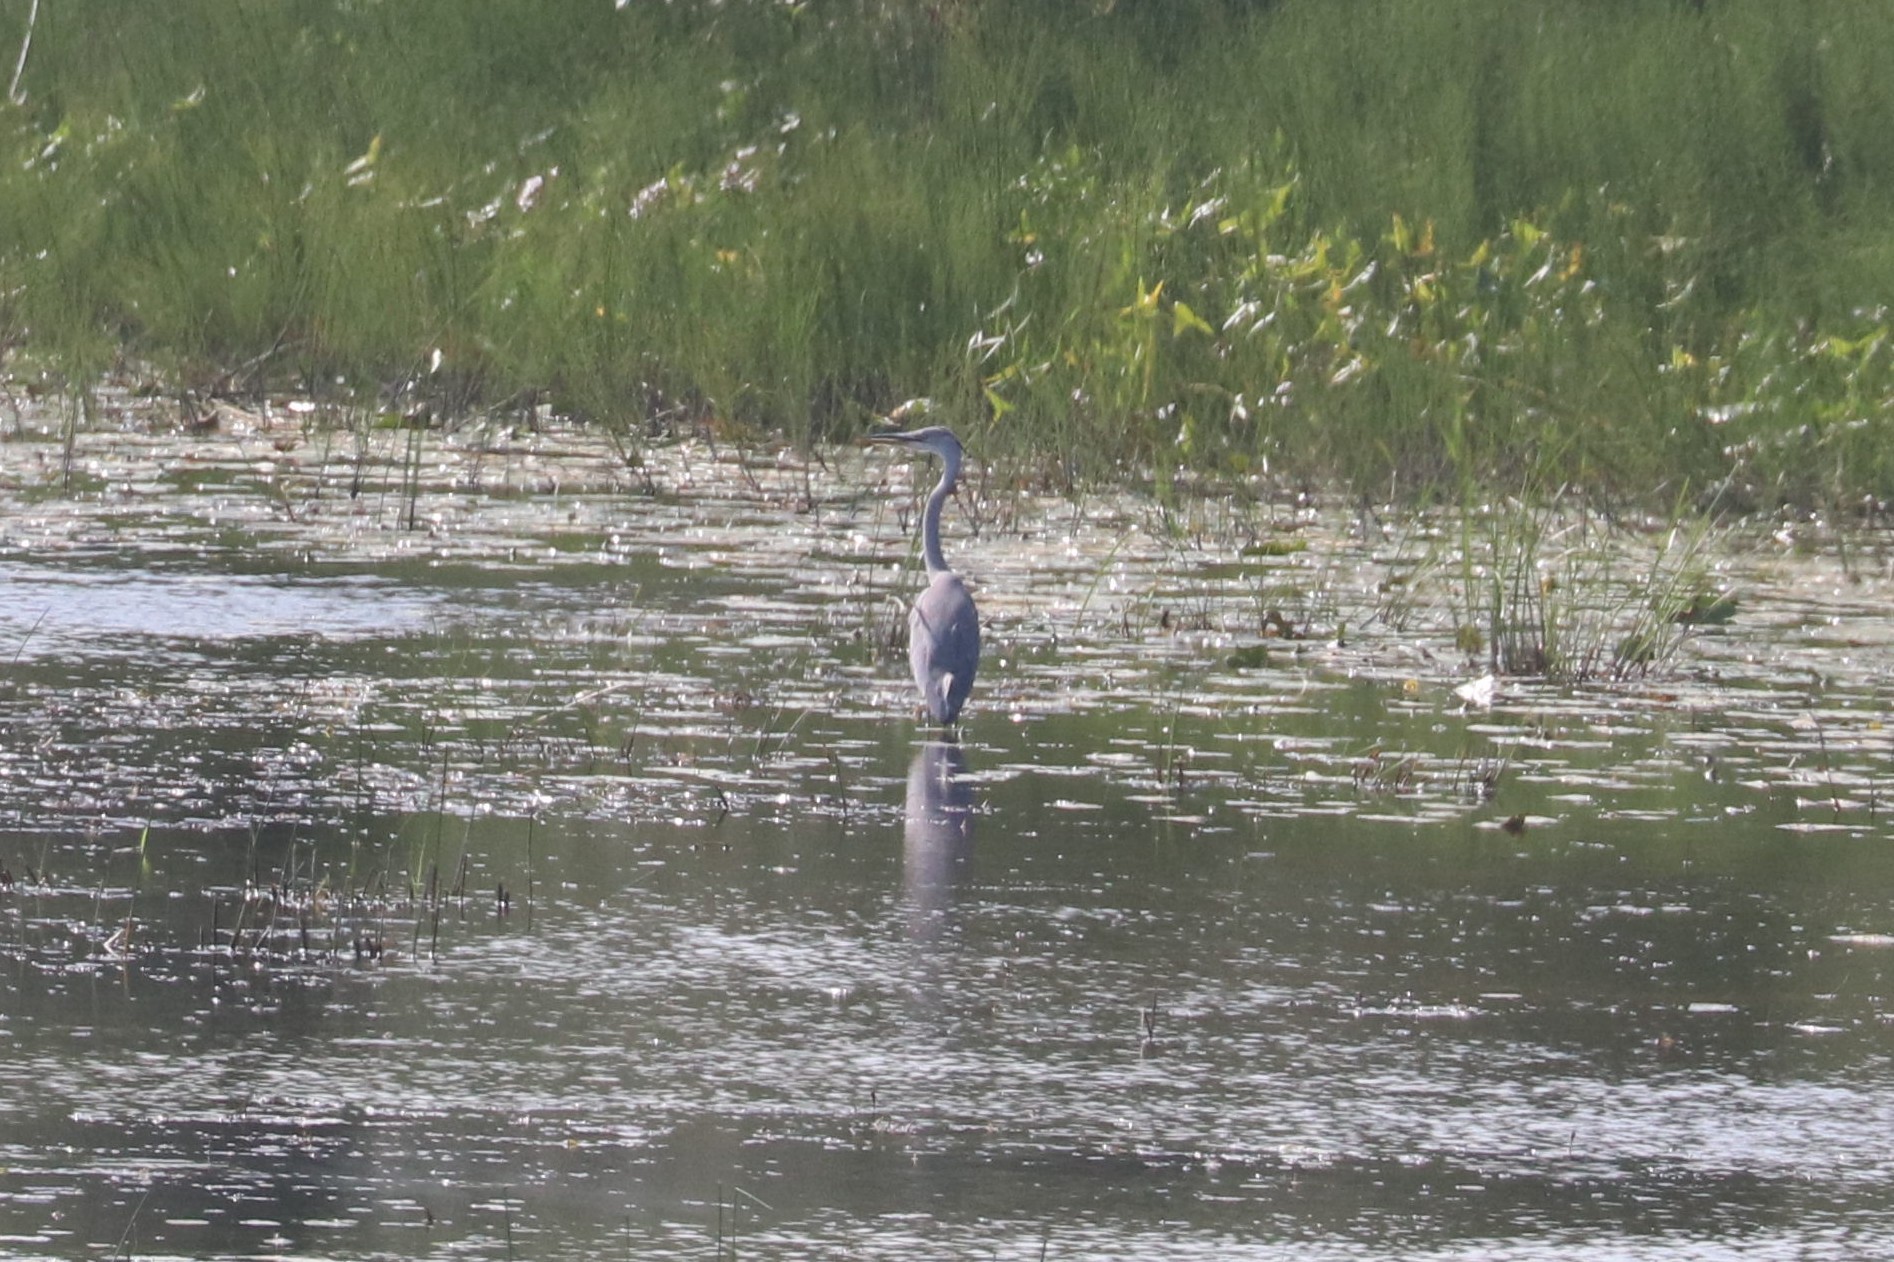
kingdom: Animalia
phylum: Chordata
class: Aves
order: Pelecaniformes
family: Ardeidae
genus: Ardea
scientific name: Ardea cinerea
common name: Grey heron
